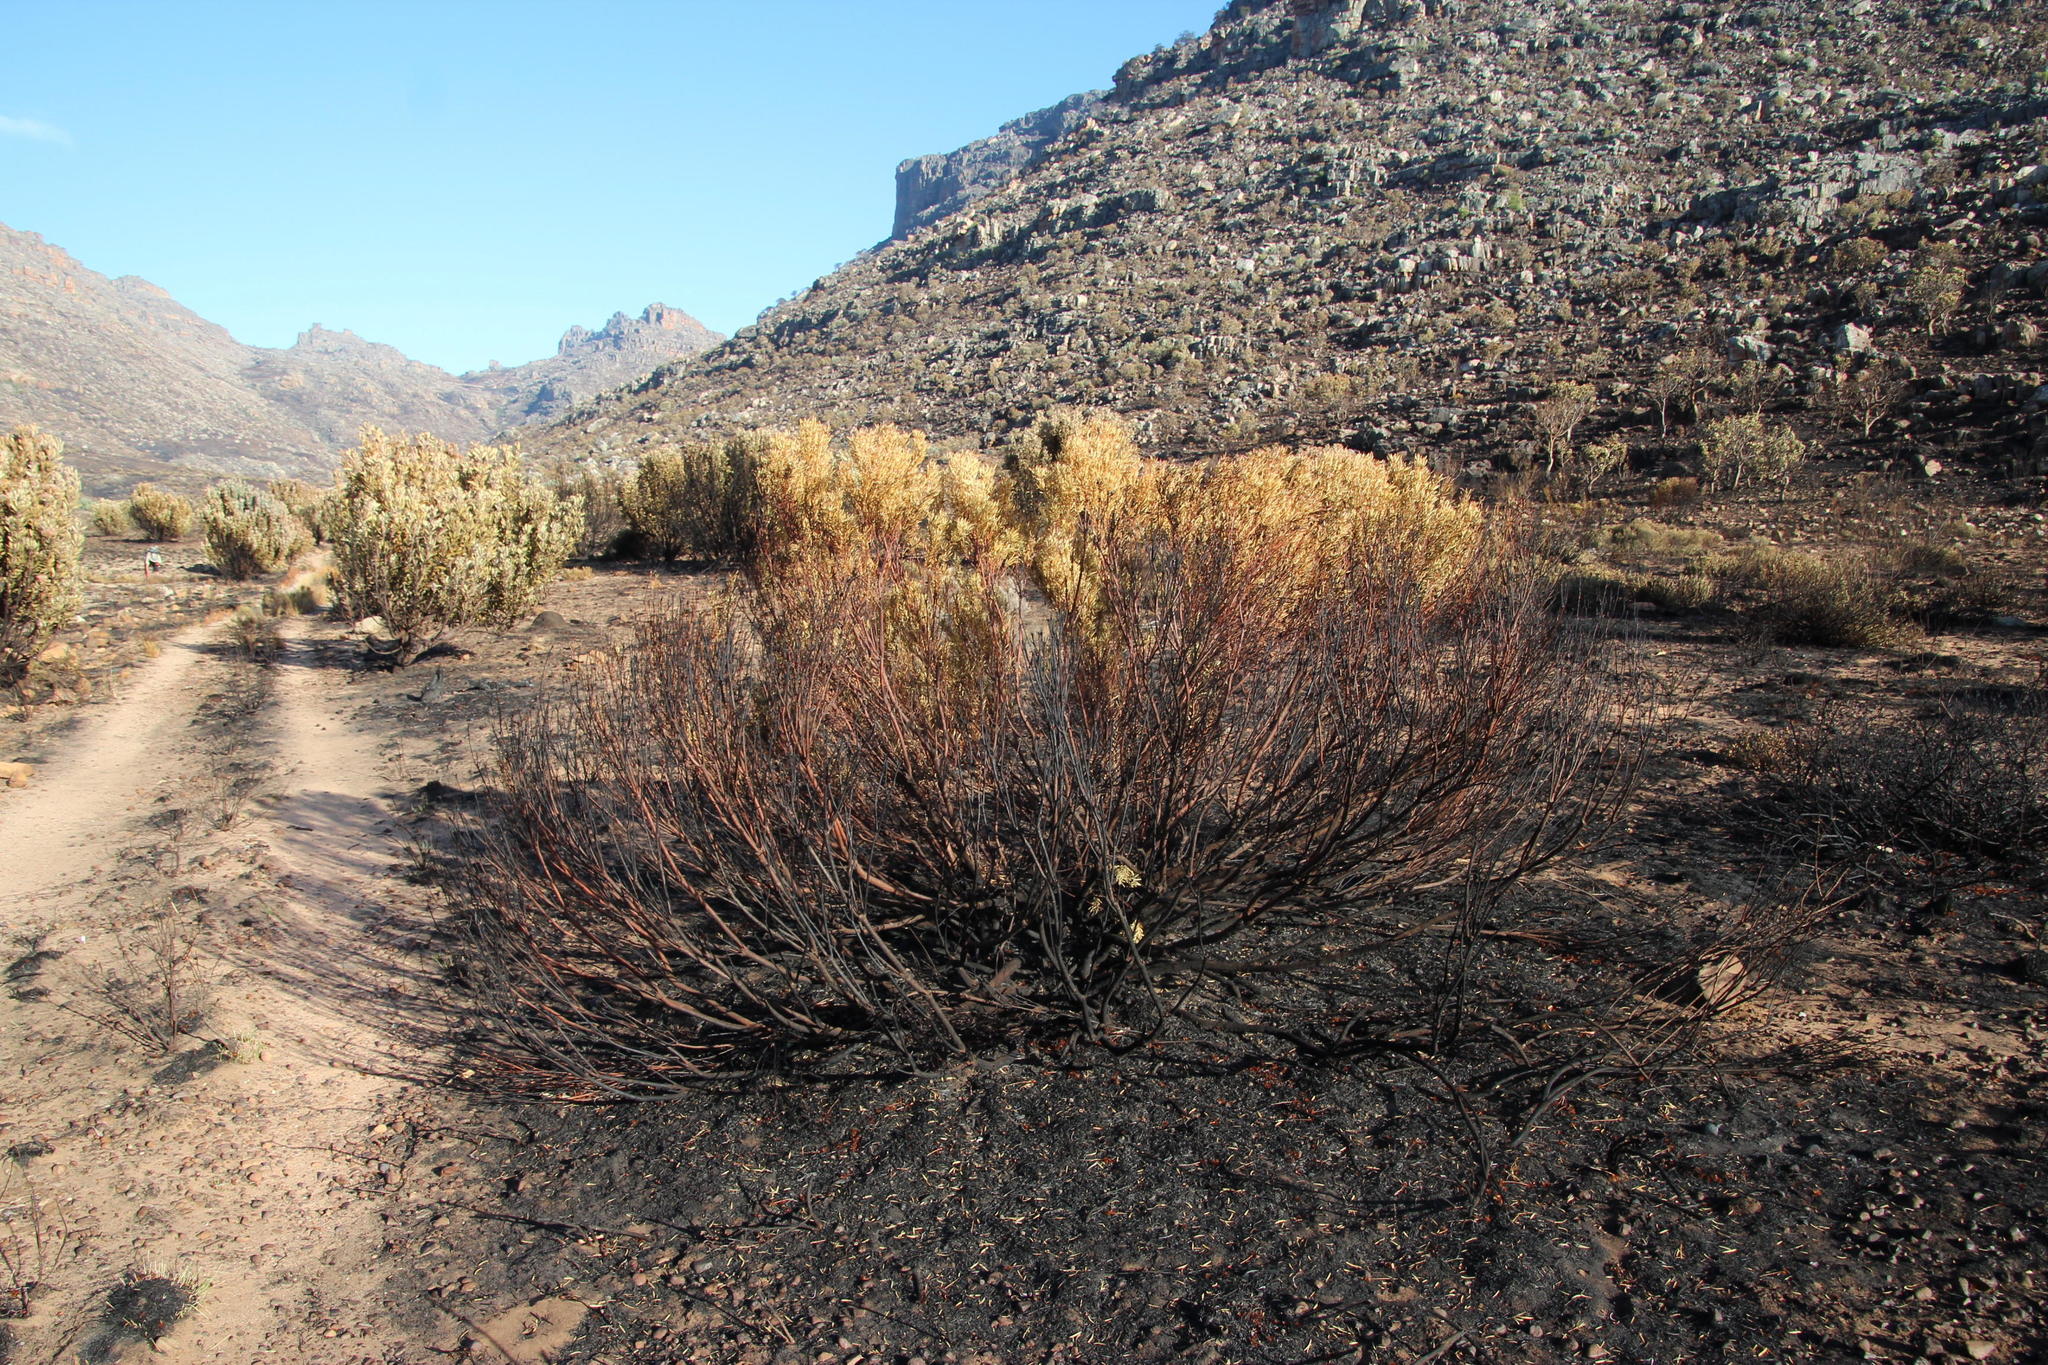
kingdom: Plantae
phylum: Tracheophyta
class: Magnoliopsida
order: Proteales
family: Proteaceae
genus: Leucadendron
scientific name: Leucadendron salignum
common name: Common sunshine conebush
